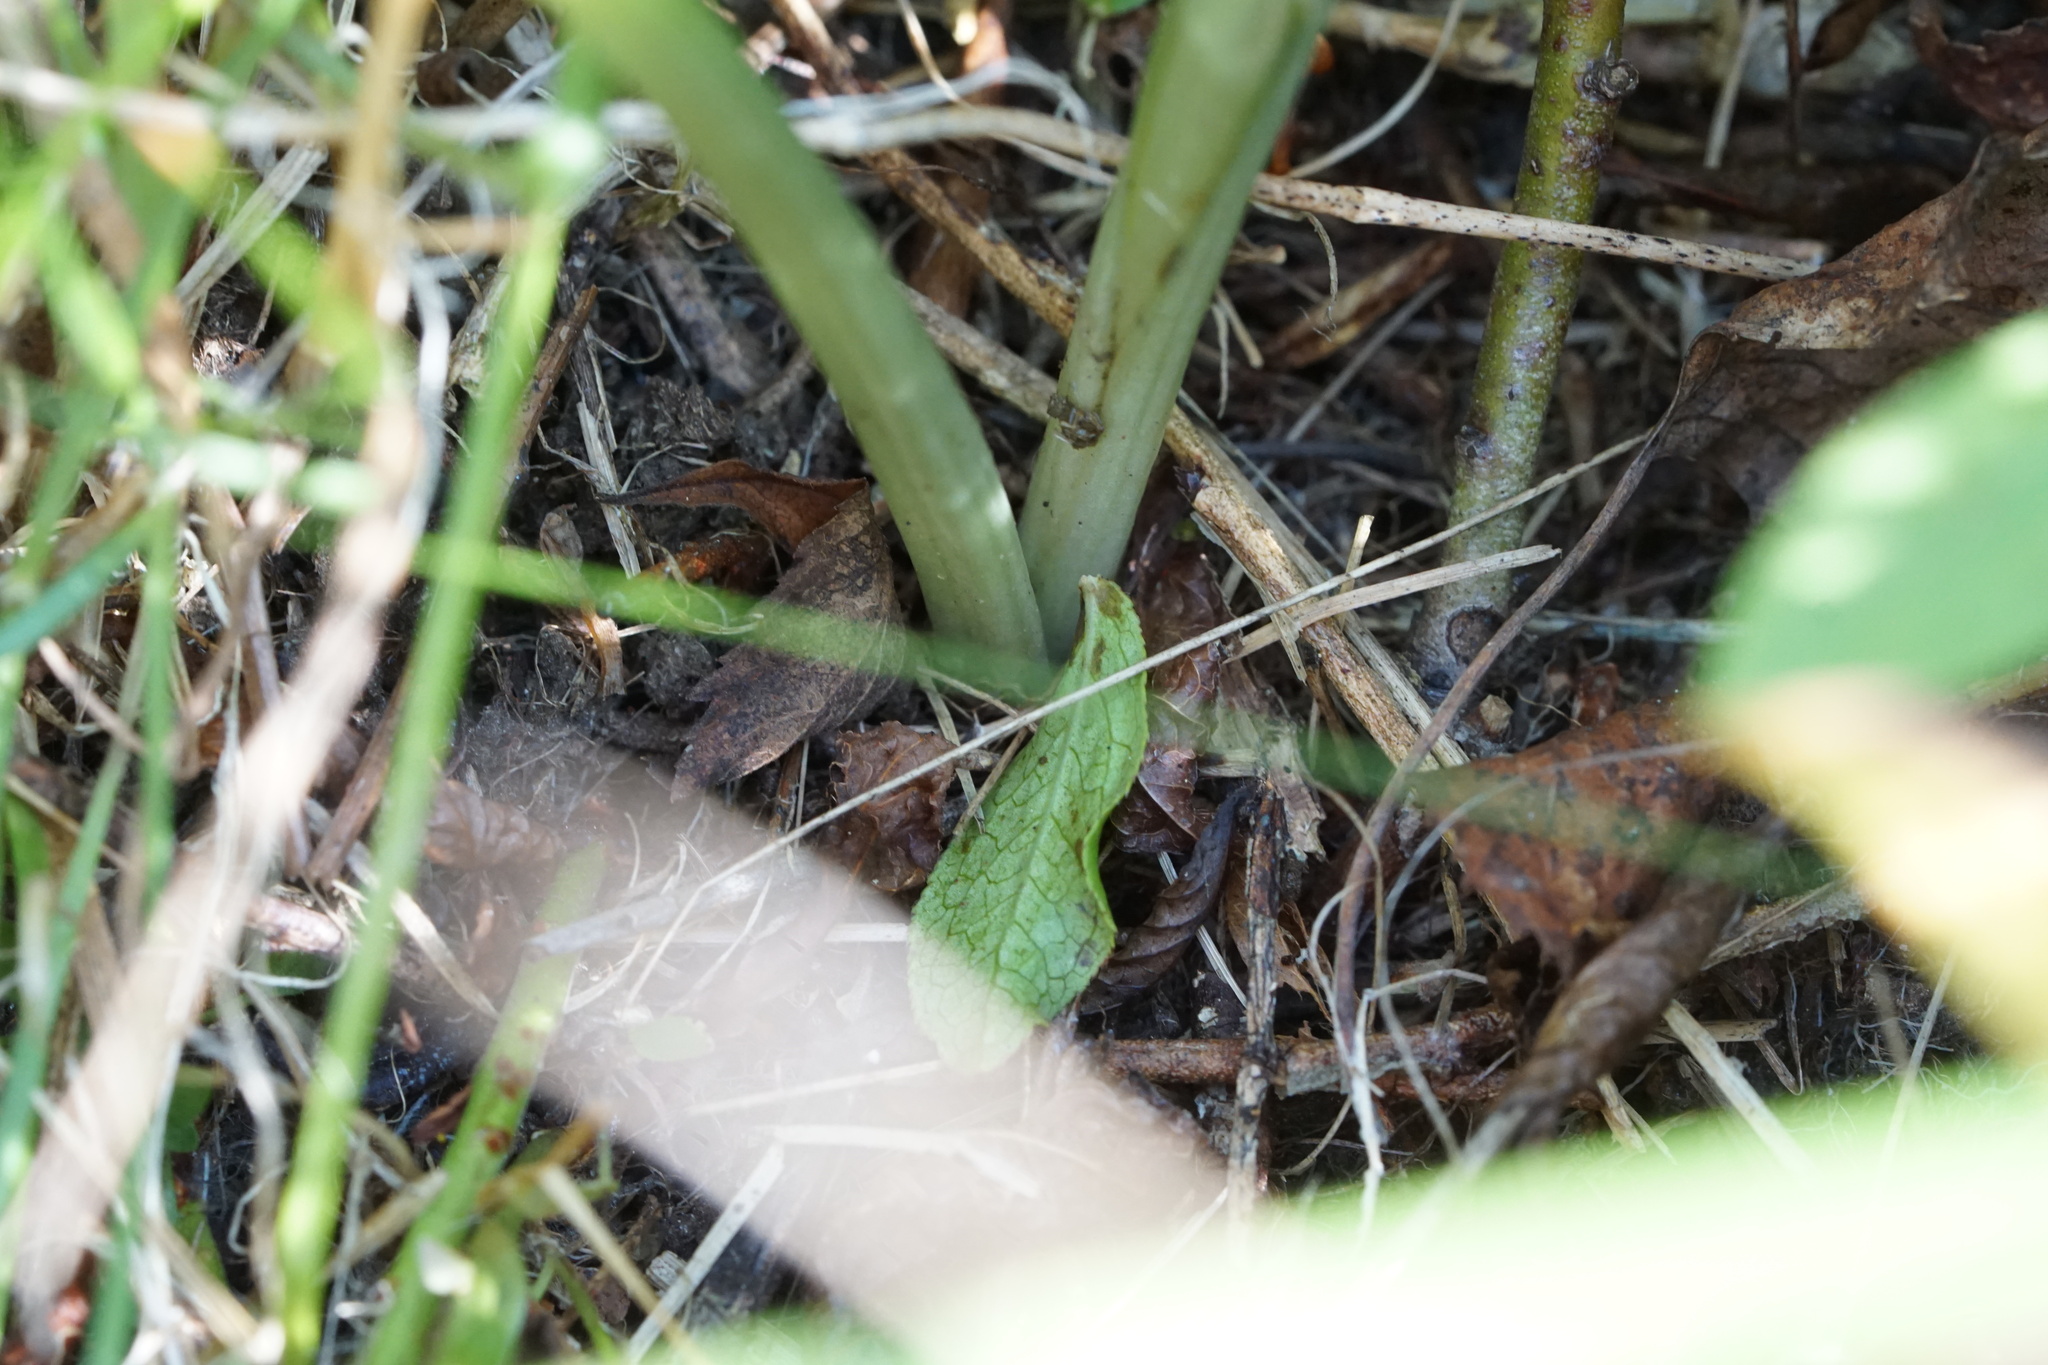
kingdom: Plantae
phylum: Tracheophyta
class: Liliopsida
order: Asparagales
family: Orchidaceae
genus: Spiranthes
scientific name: Spiranthes ochroleuca
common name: Yellow ladies'-tresses
